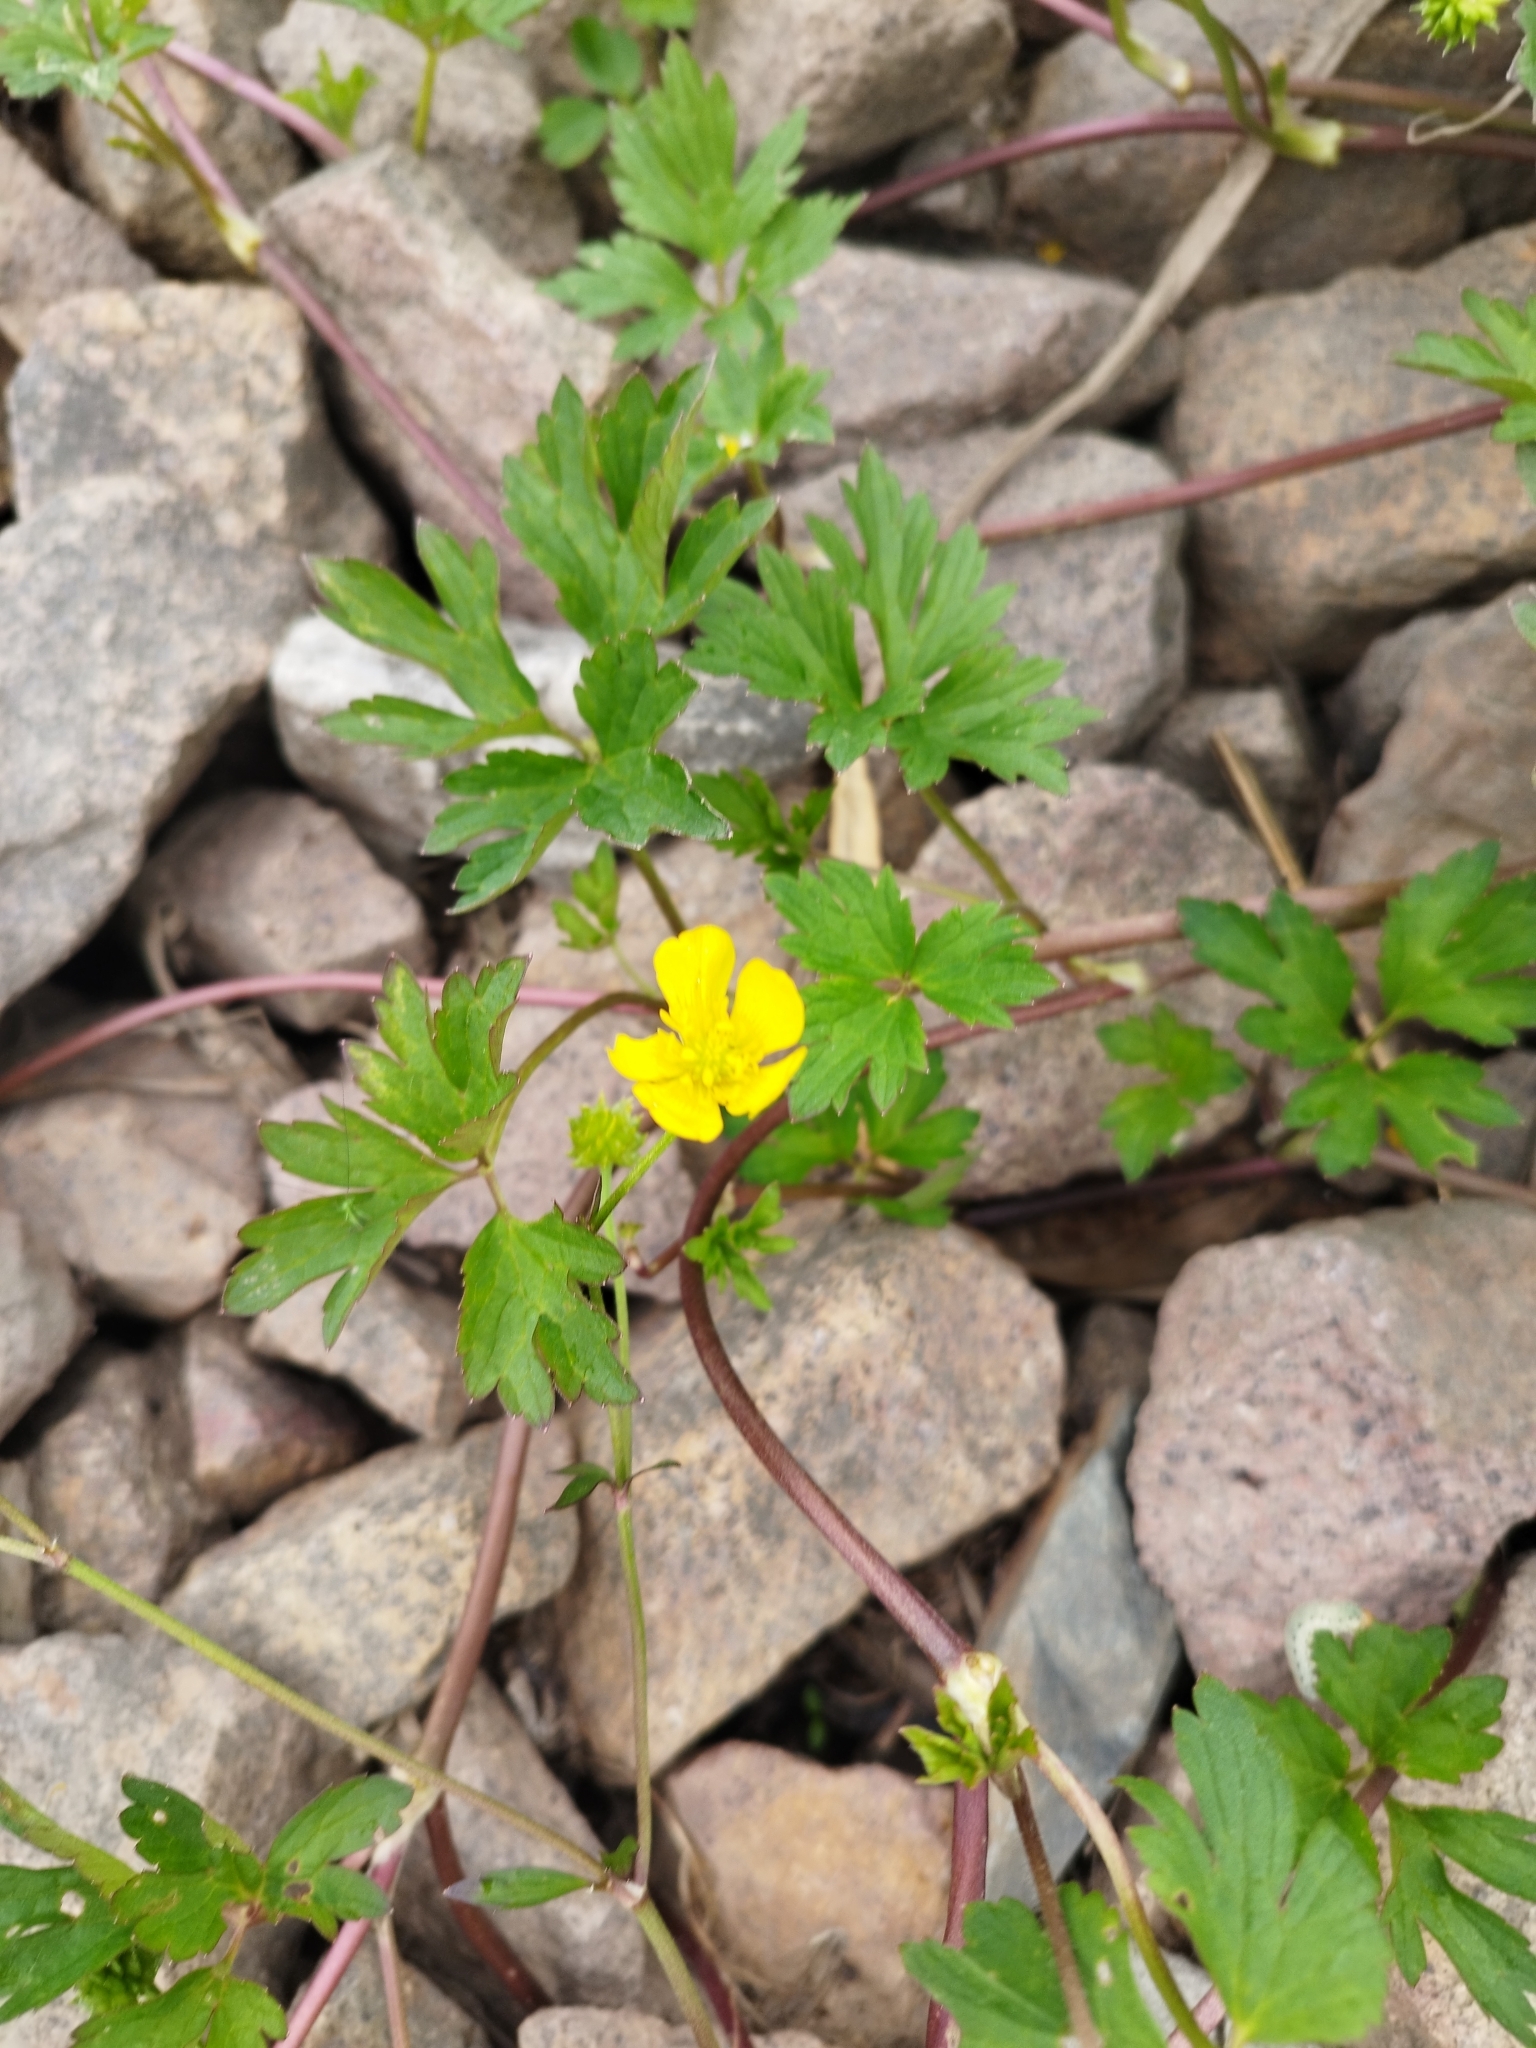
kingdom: Plantae
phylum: Tracheophyta
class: Magnoliopsida
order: Ranunculales
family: Ranunculaceae
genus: Ranunculus
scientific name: Ranunculus repens
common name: Creeping buttercup
